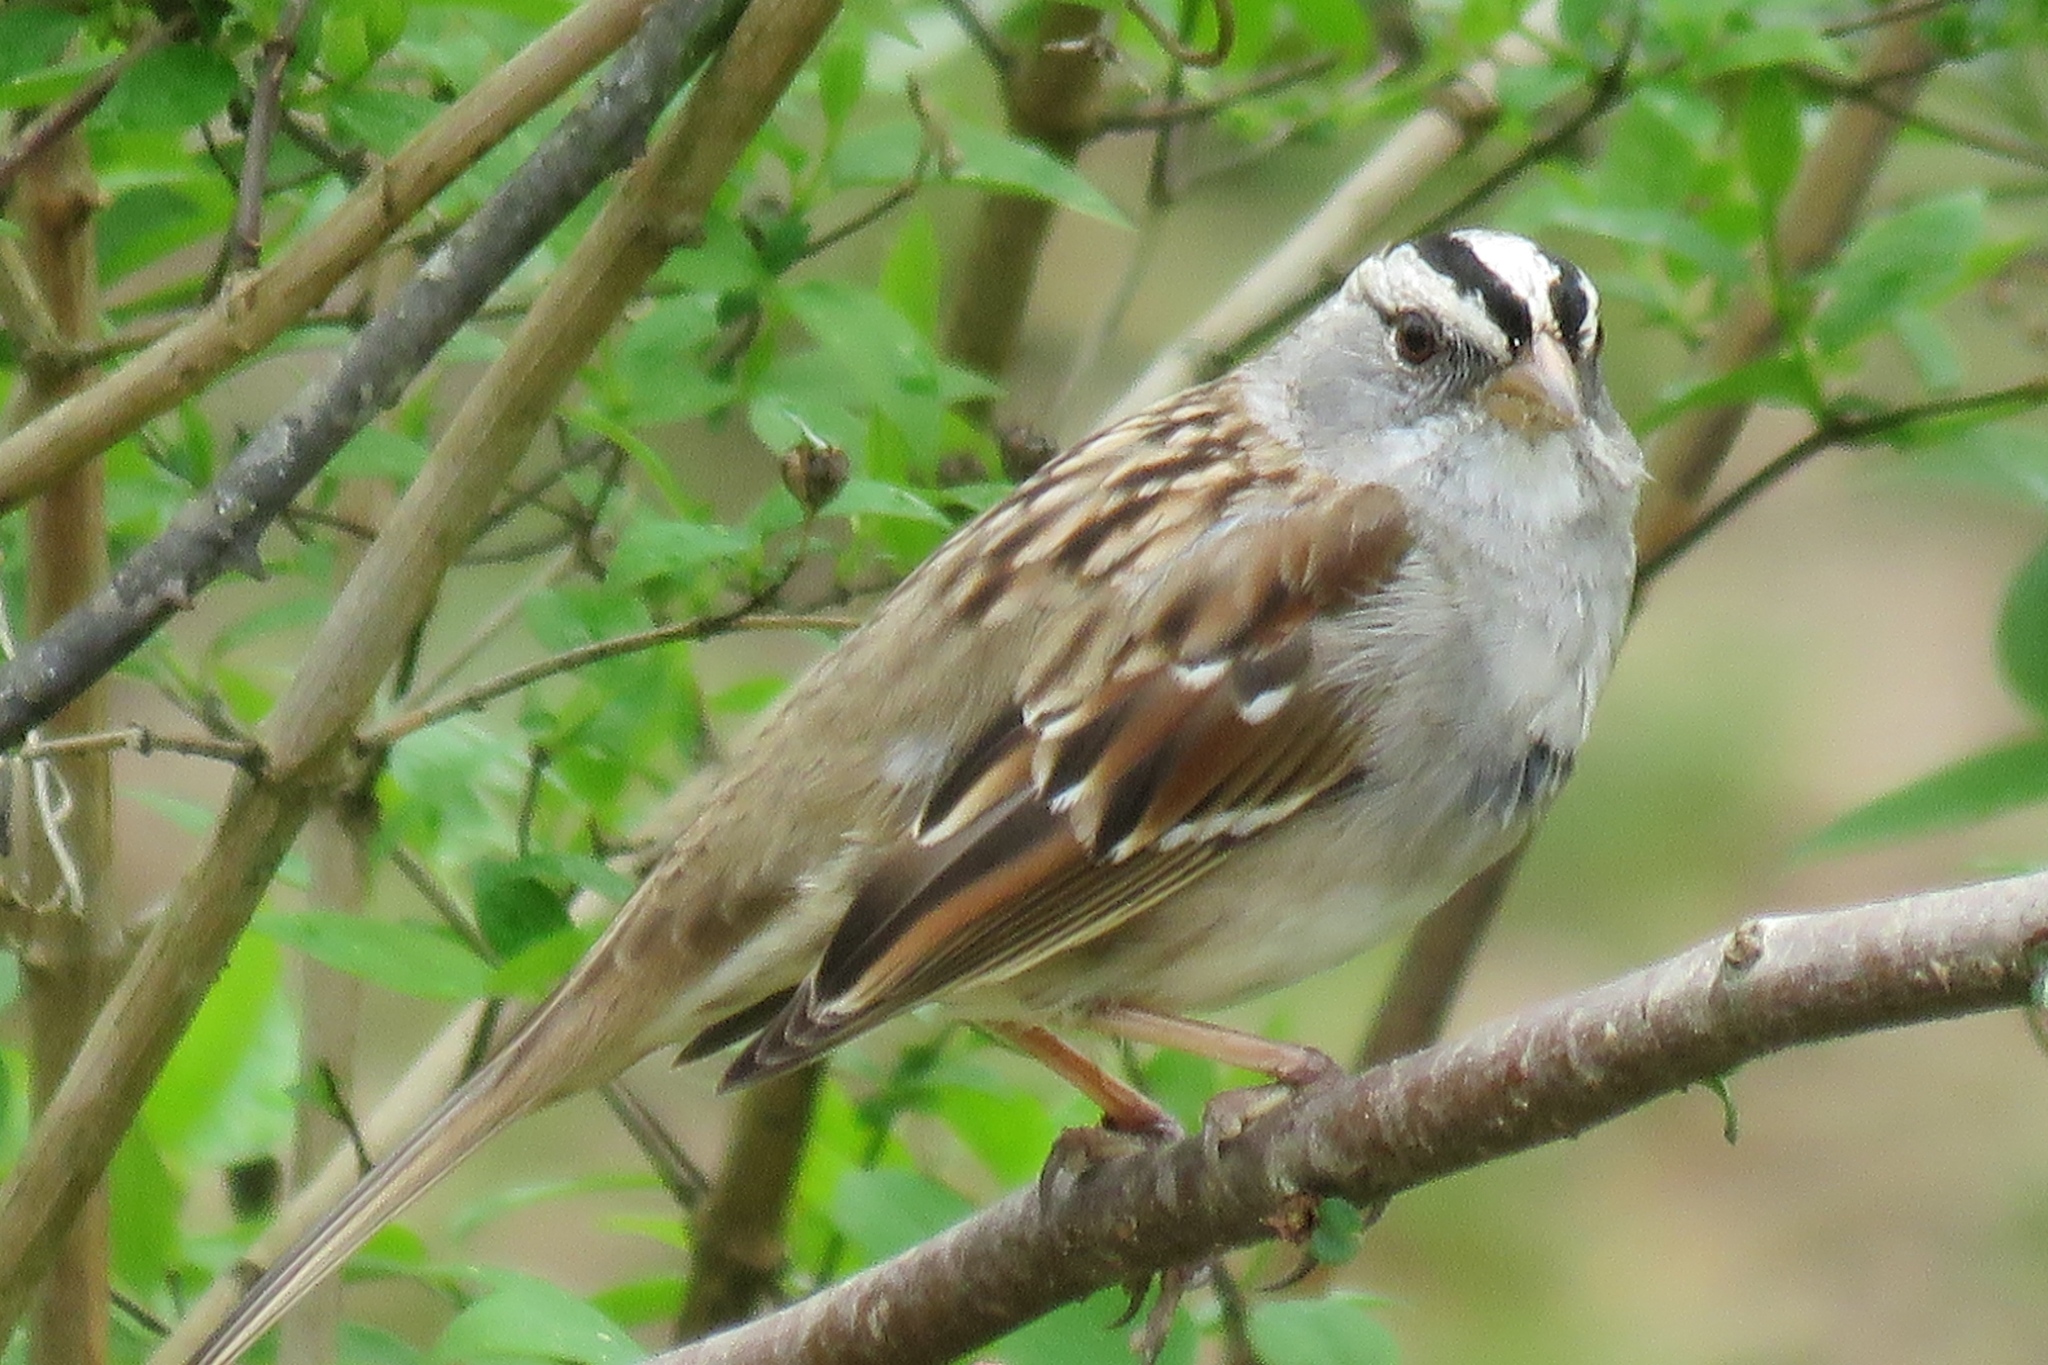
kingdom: Animalia
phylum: Chordata
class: Aves
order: Passeriformes
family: Passerellidae
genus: Zonotrichia
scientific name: Zonotrichia leucophrys
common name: White-crowned sparrow
